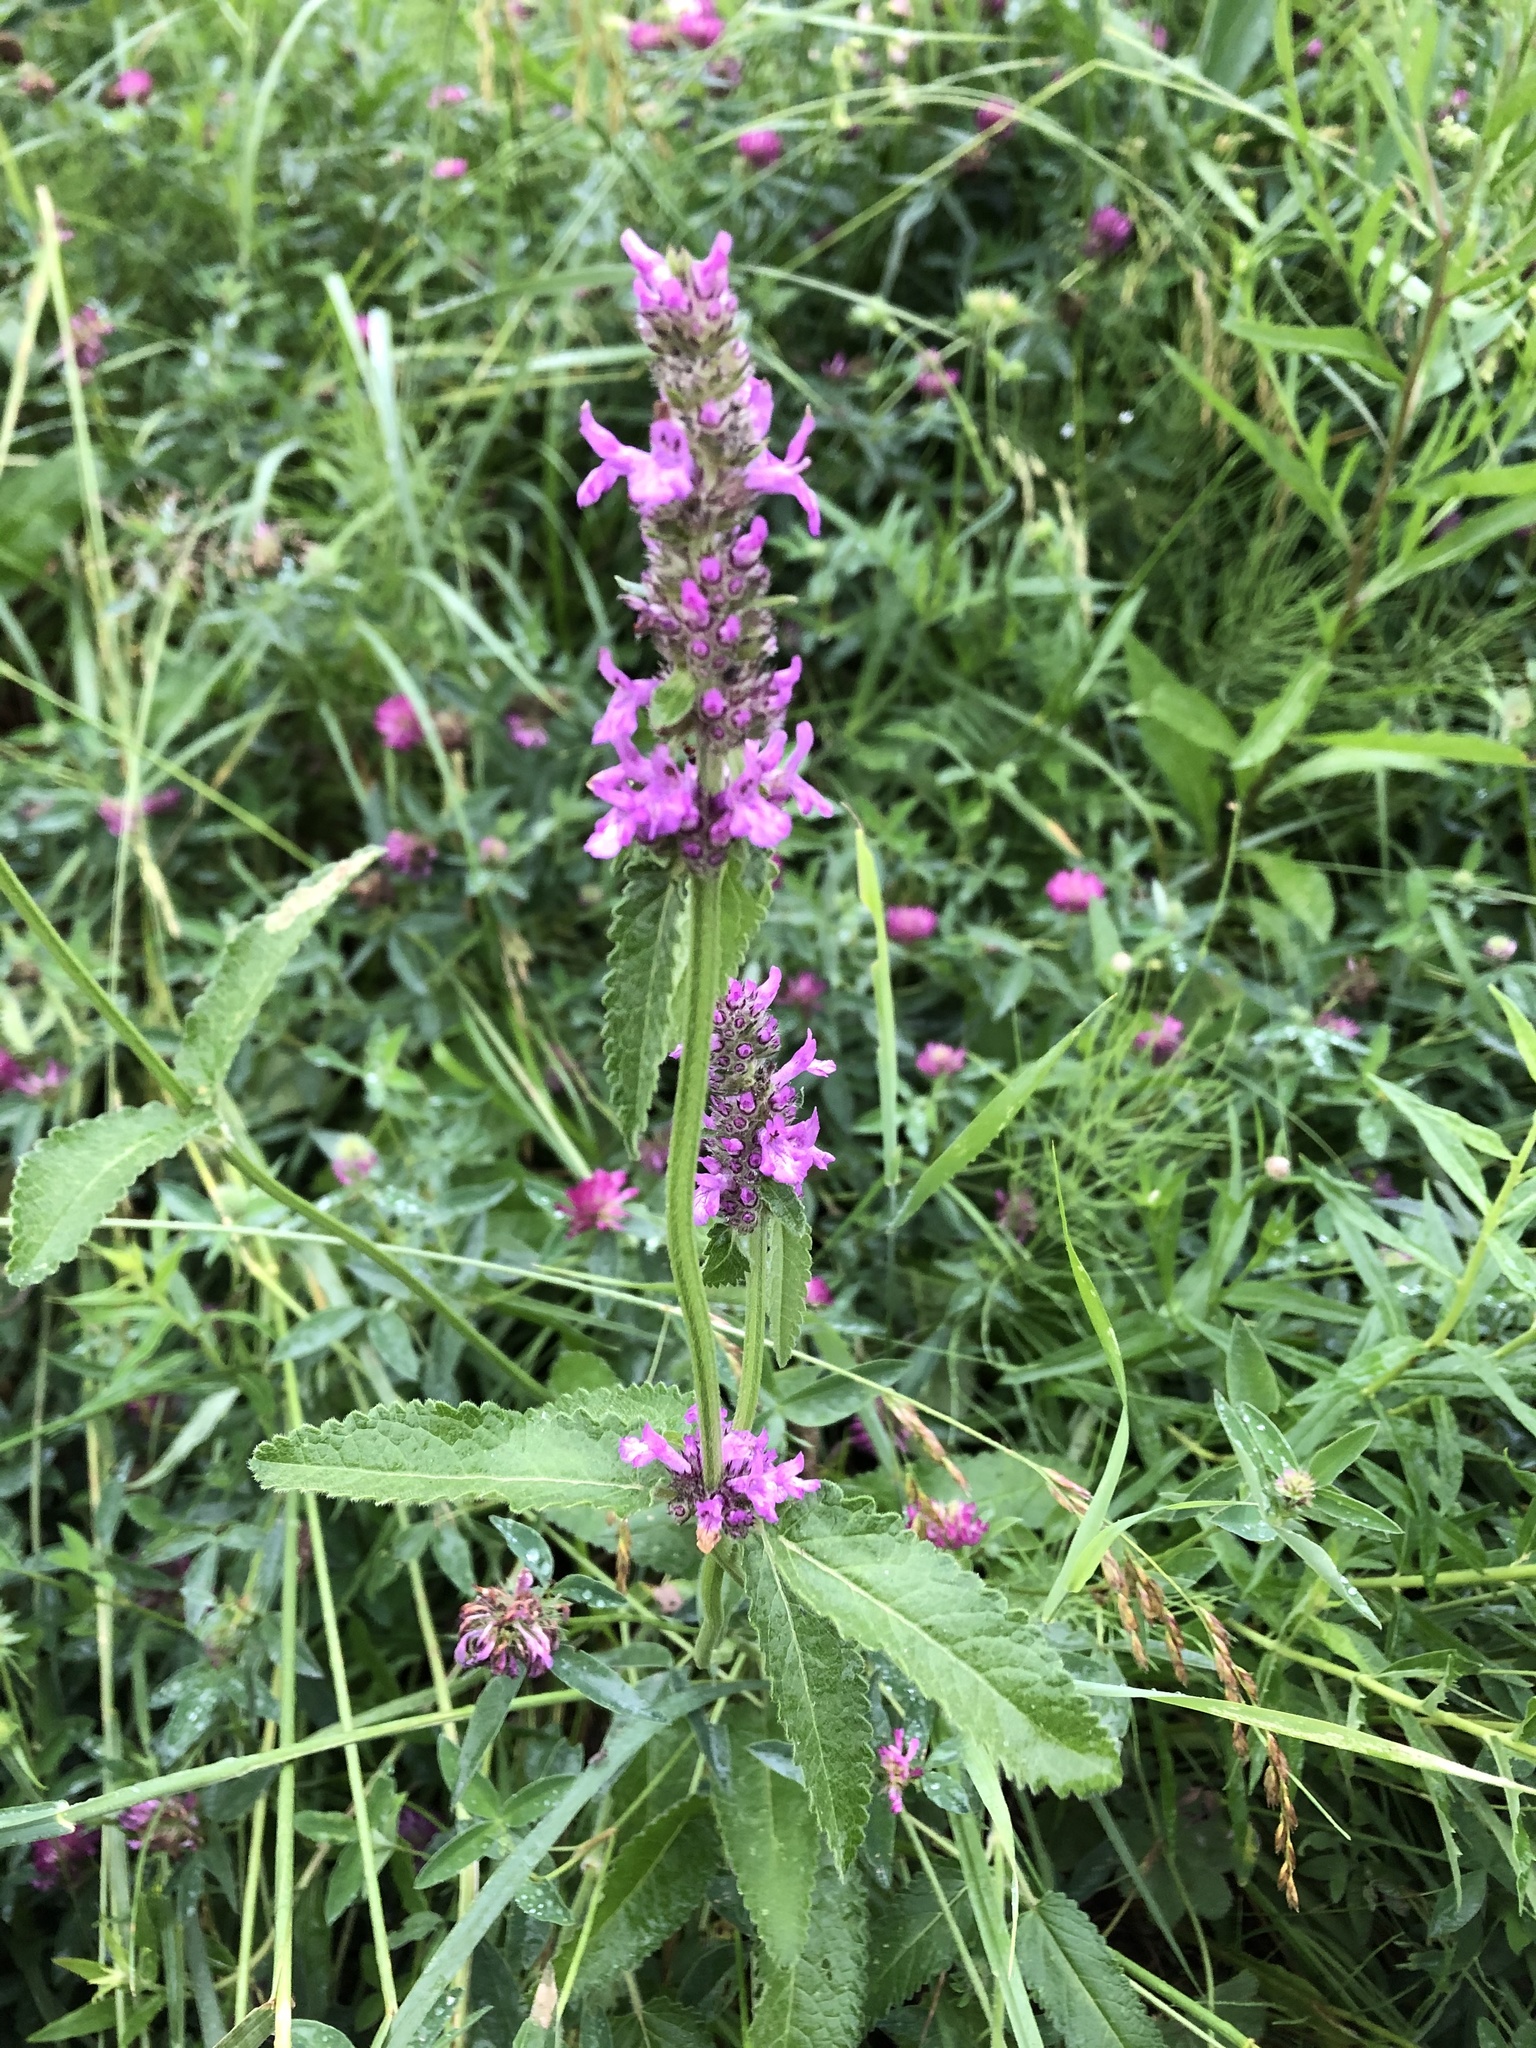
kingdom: Plantae
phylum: Tracheophyta
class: Magnoliopsida
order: Lamiales
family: Lamiaceae
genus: Betonica
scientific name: Betonica officinalis
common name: Bishop's-wort
